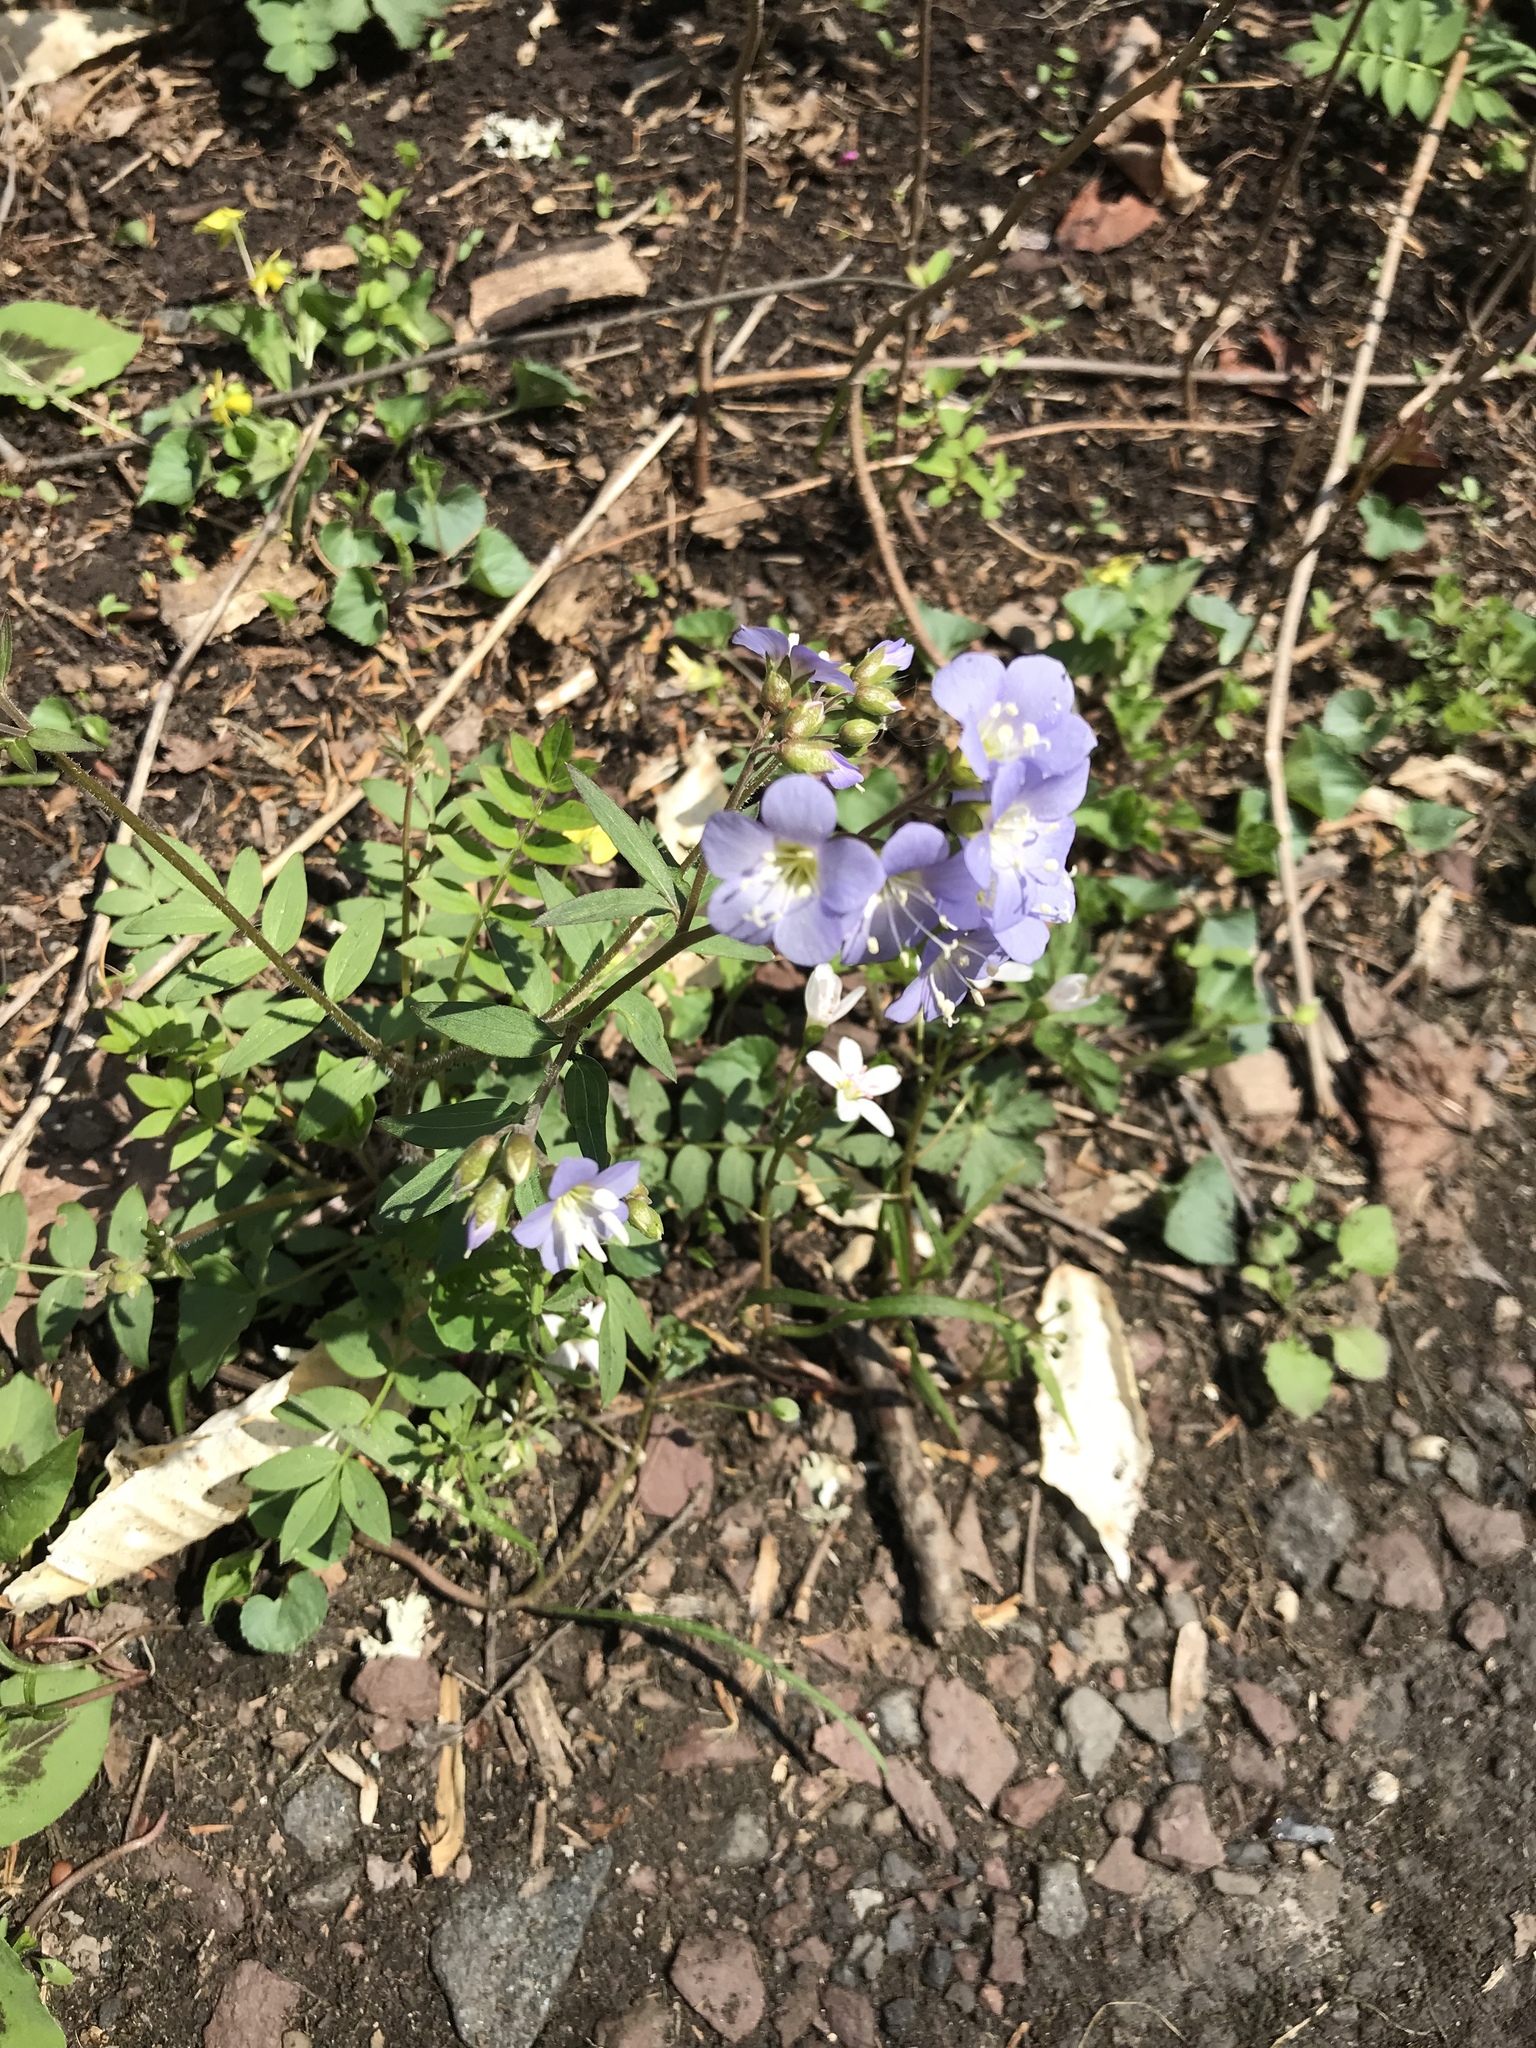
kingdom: Plantae
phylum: Tracheophyta
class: Magnoliopsida
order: Ericales
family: Polemoniaceae
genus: Polemonium
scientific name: Polemonium reptans
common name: Creeping jacob's-ladder
